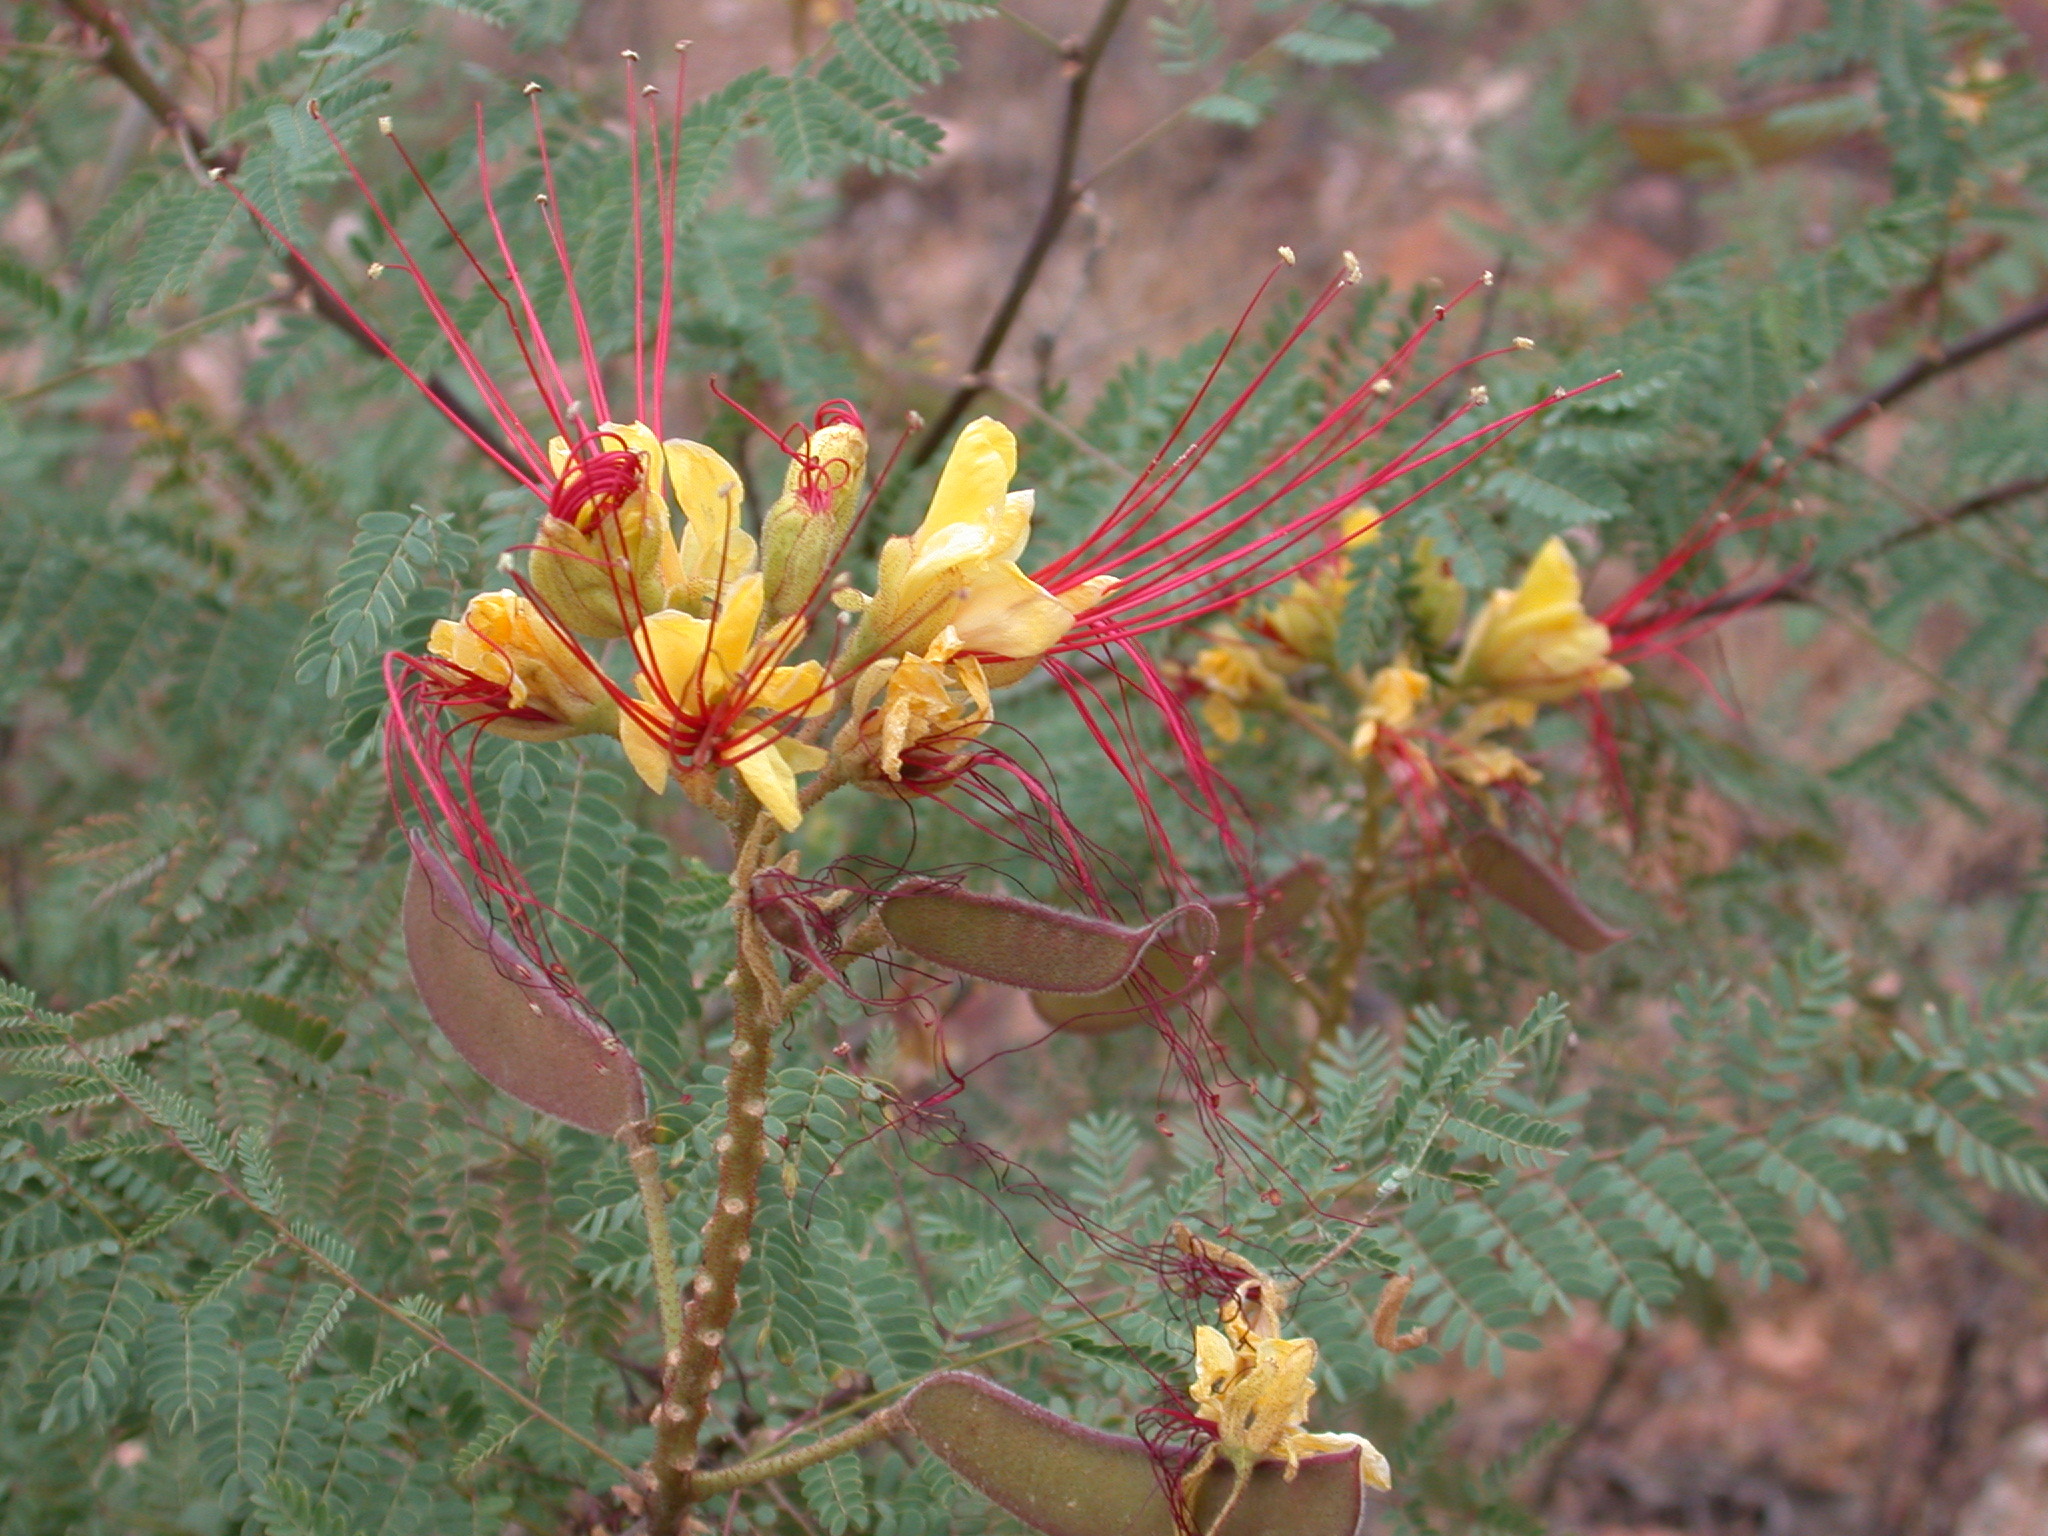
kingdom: Plantae
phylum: Tracheophyta
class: Magnoliopsida
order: Fabales
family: Fabaceae
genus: Erythrostemon
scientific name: Erythrostemon gilliesii
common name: Bird-of-paradise shrub
